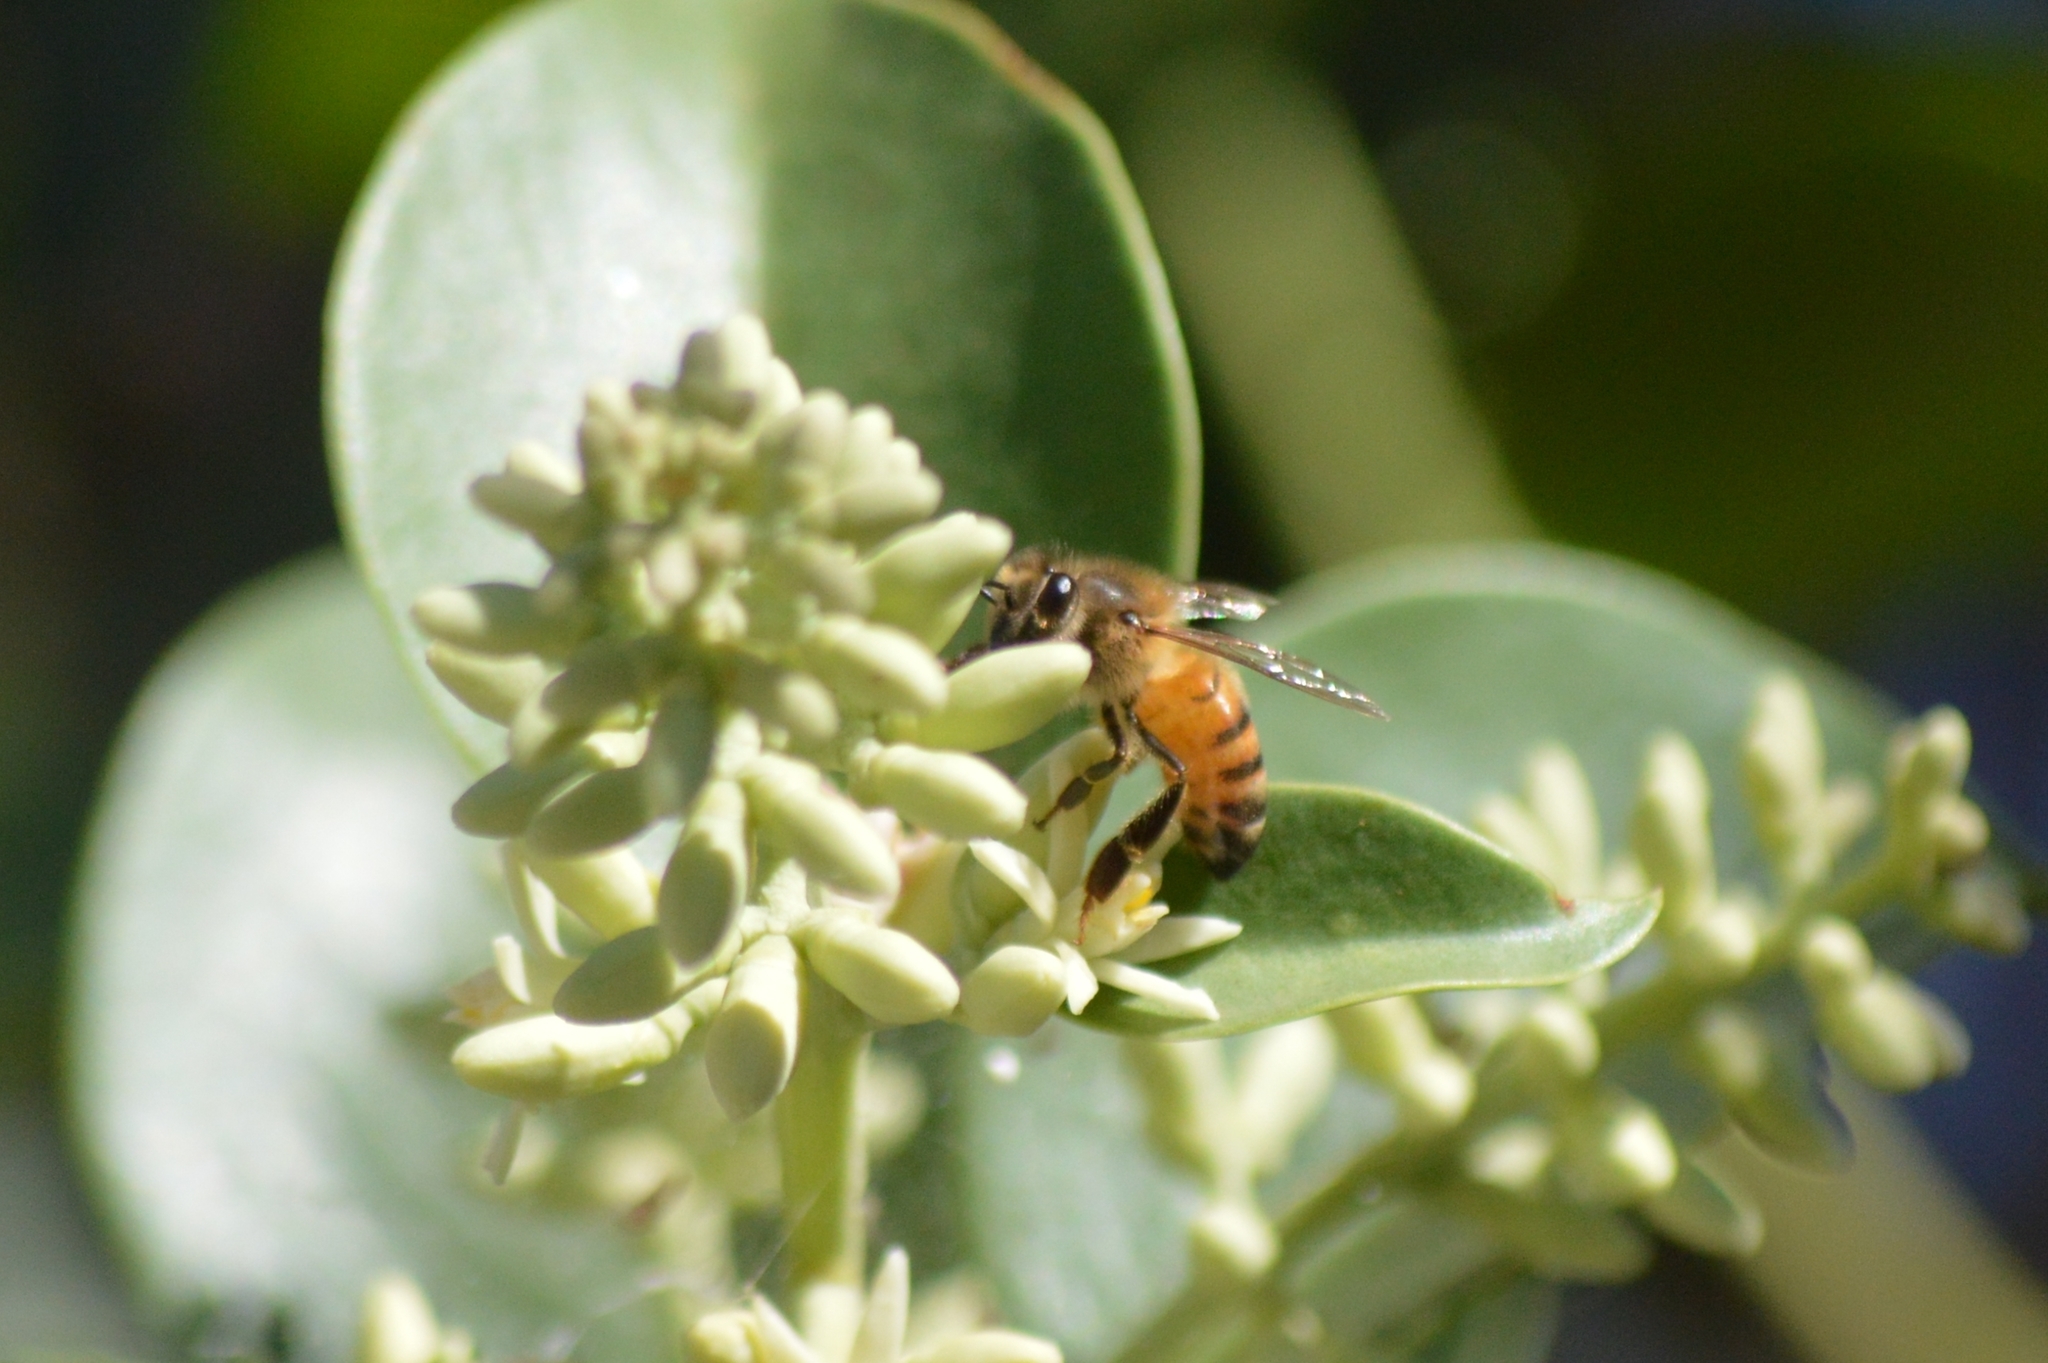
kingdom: Animalia
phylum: Arthropoda
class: Insecta
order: Hymenoptera
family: Apidae
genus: Apis
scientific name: Apis mellifera
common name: Honey bee
